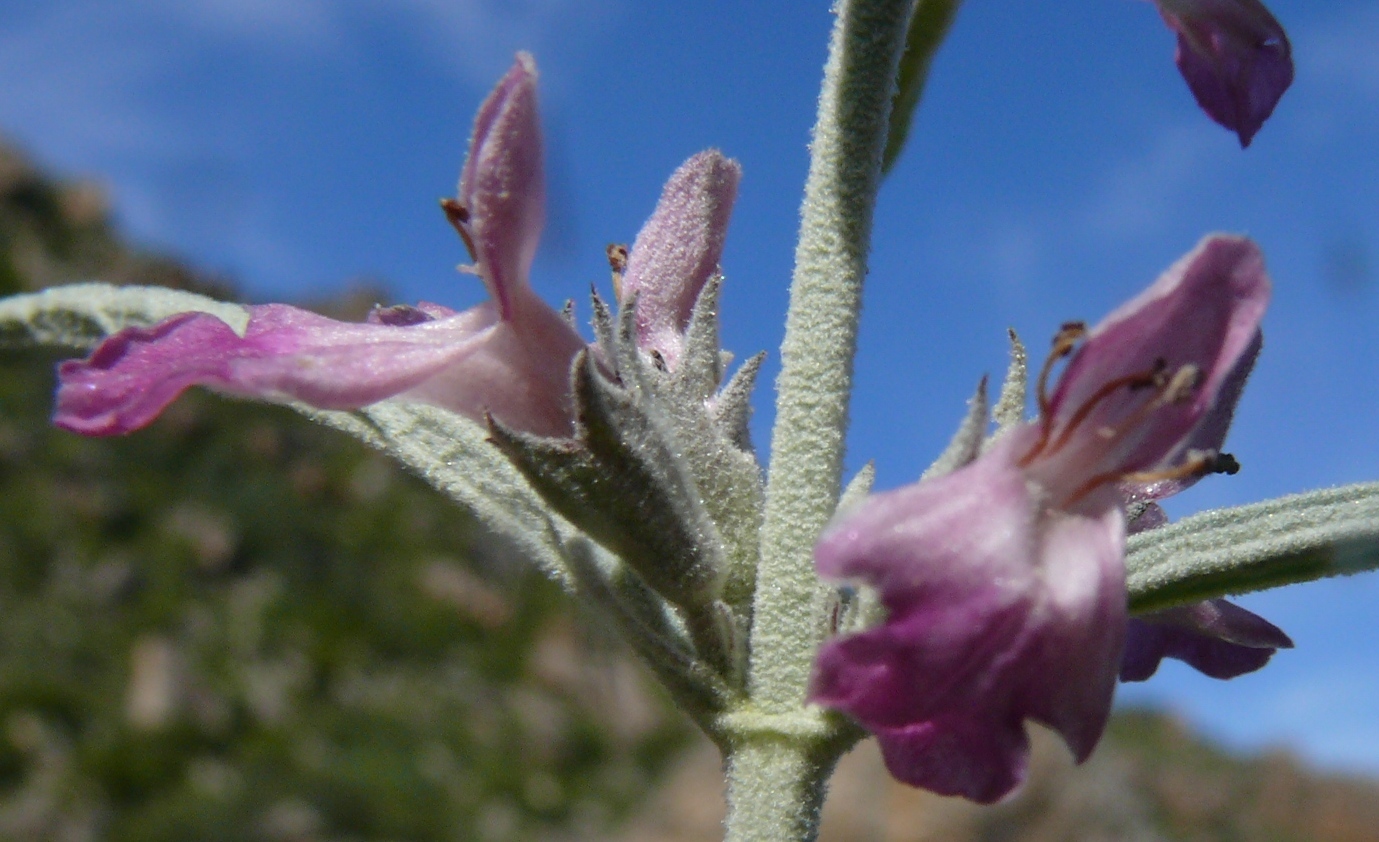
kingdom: Plantae
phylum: Tracheophyta
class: Magnoliopsida
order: Lamiales
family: Lamiaceae
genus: Stachys
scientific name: Stachys rugosa
